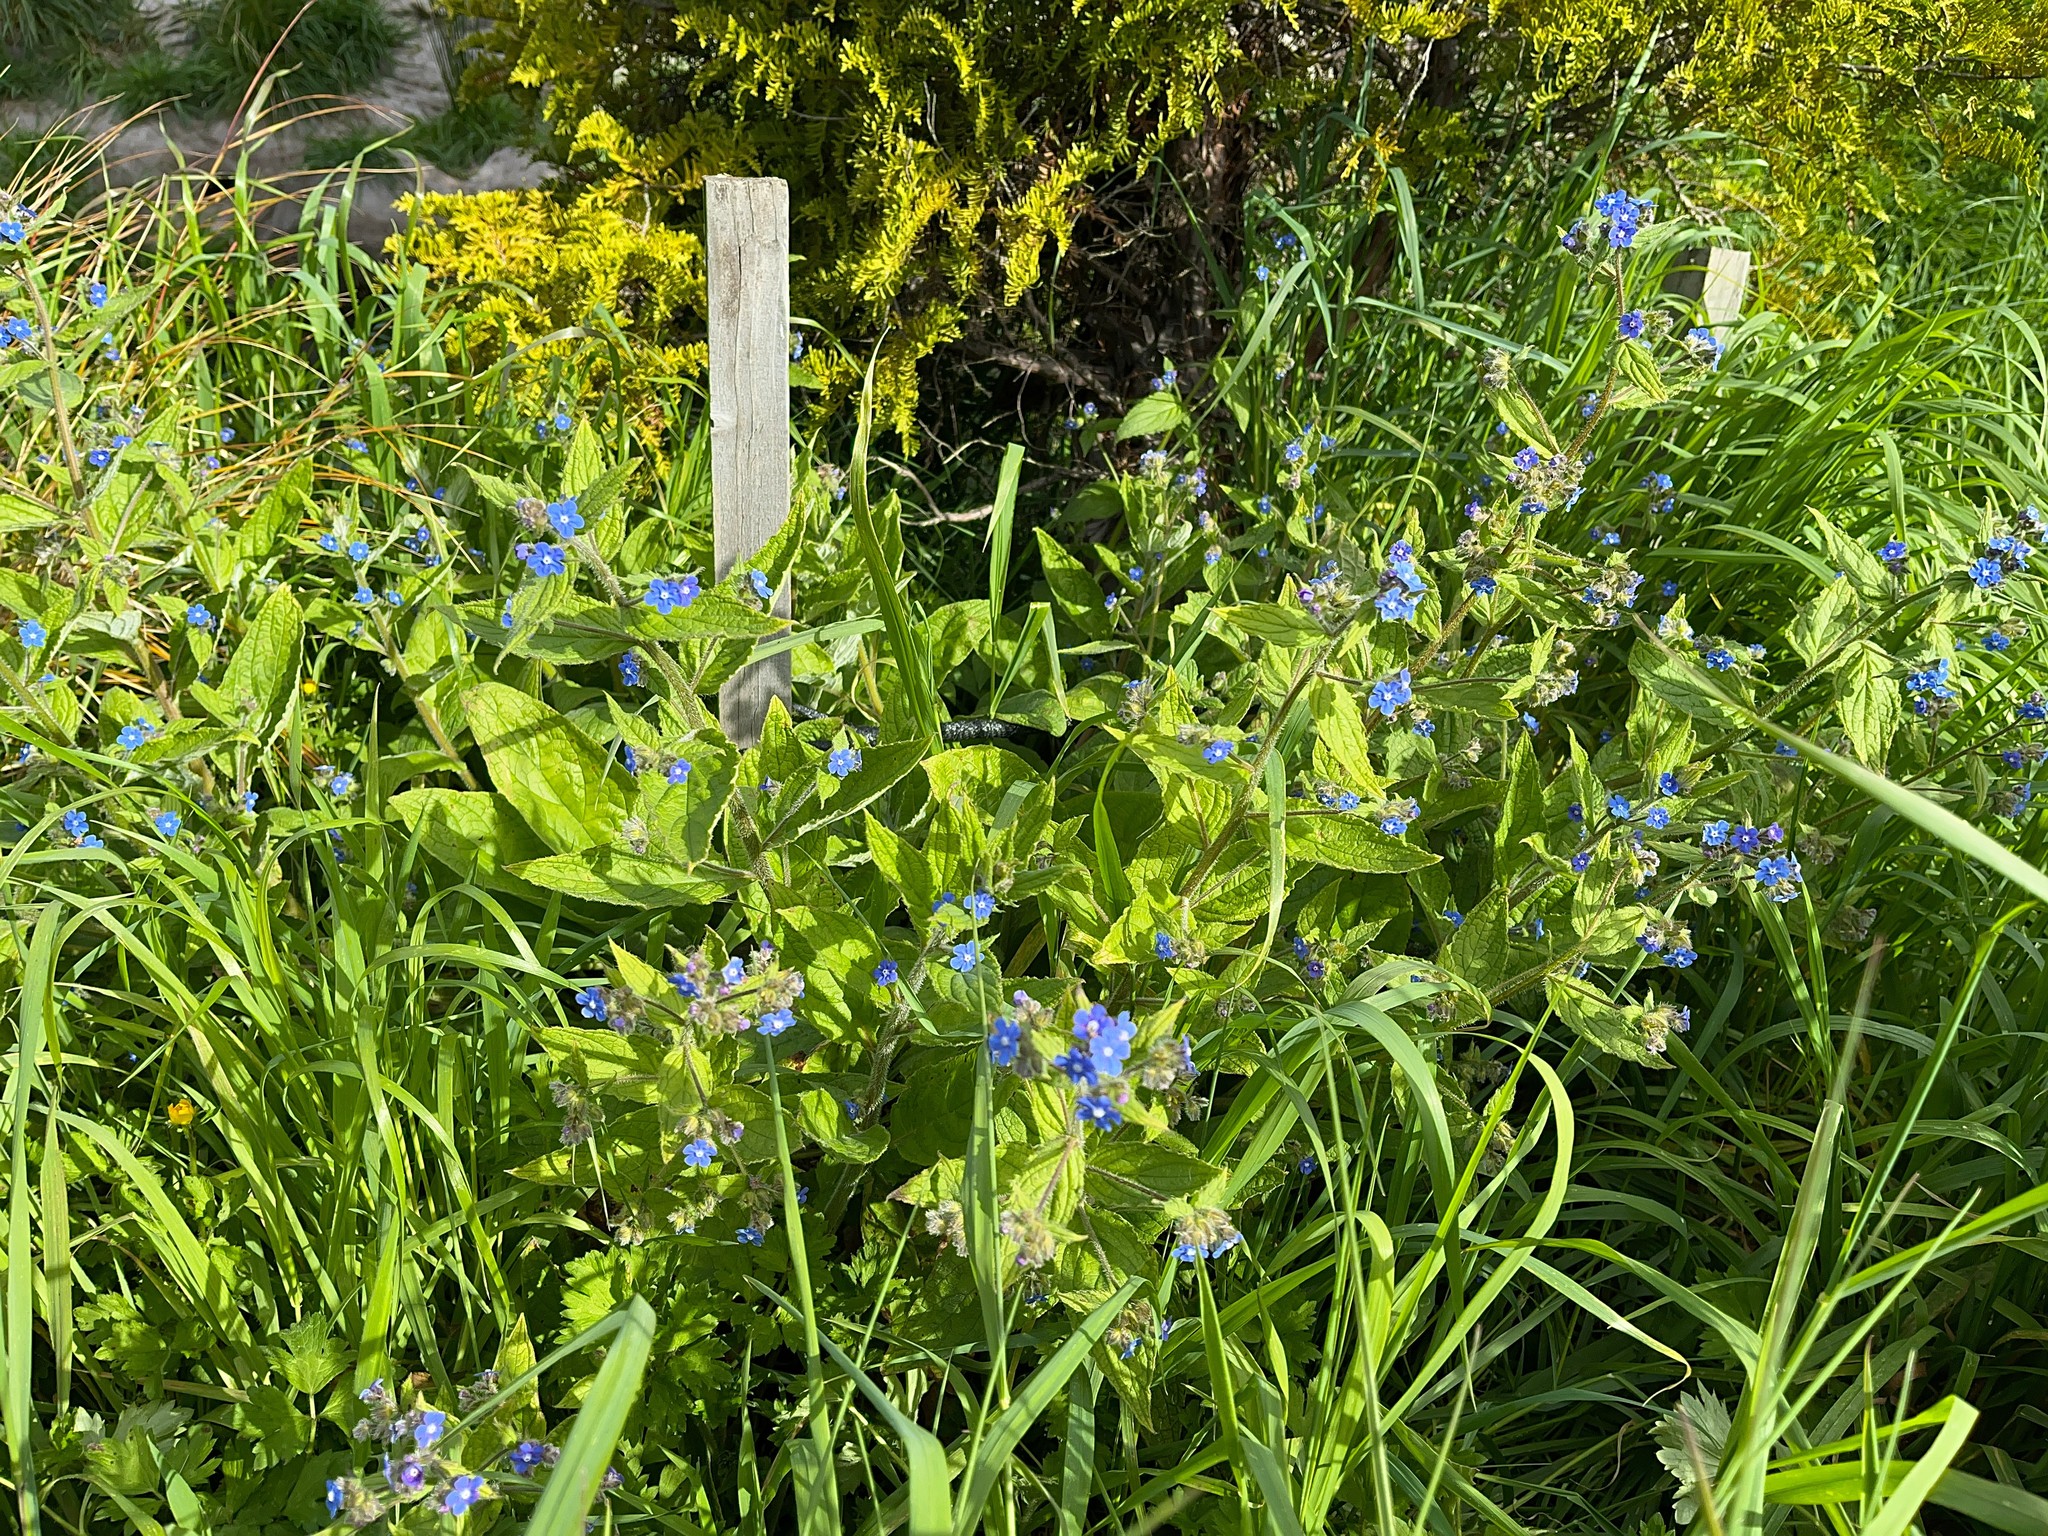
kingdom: Plantae
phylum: Tracheophyta
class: Magnoliopsida
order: Boraginales
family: Boraginaceae
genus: Pentaglottis
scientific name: Pentaglottis sempervirens
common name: Green alkanet
